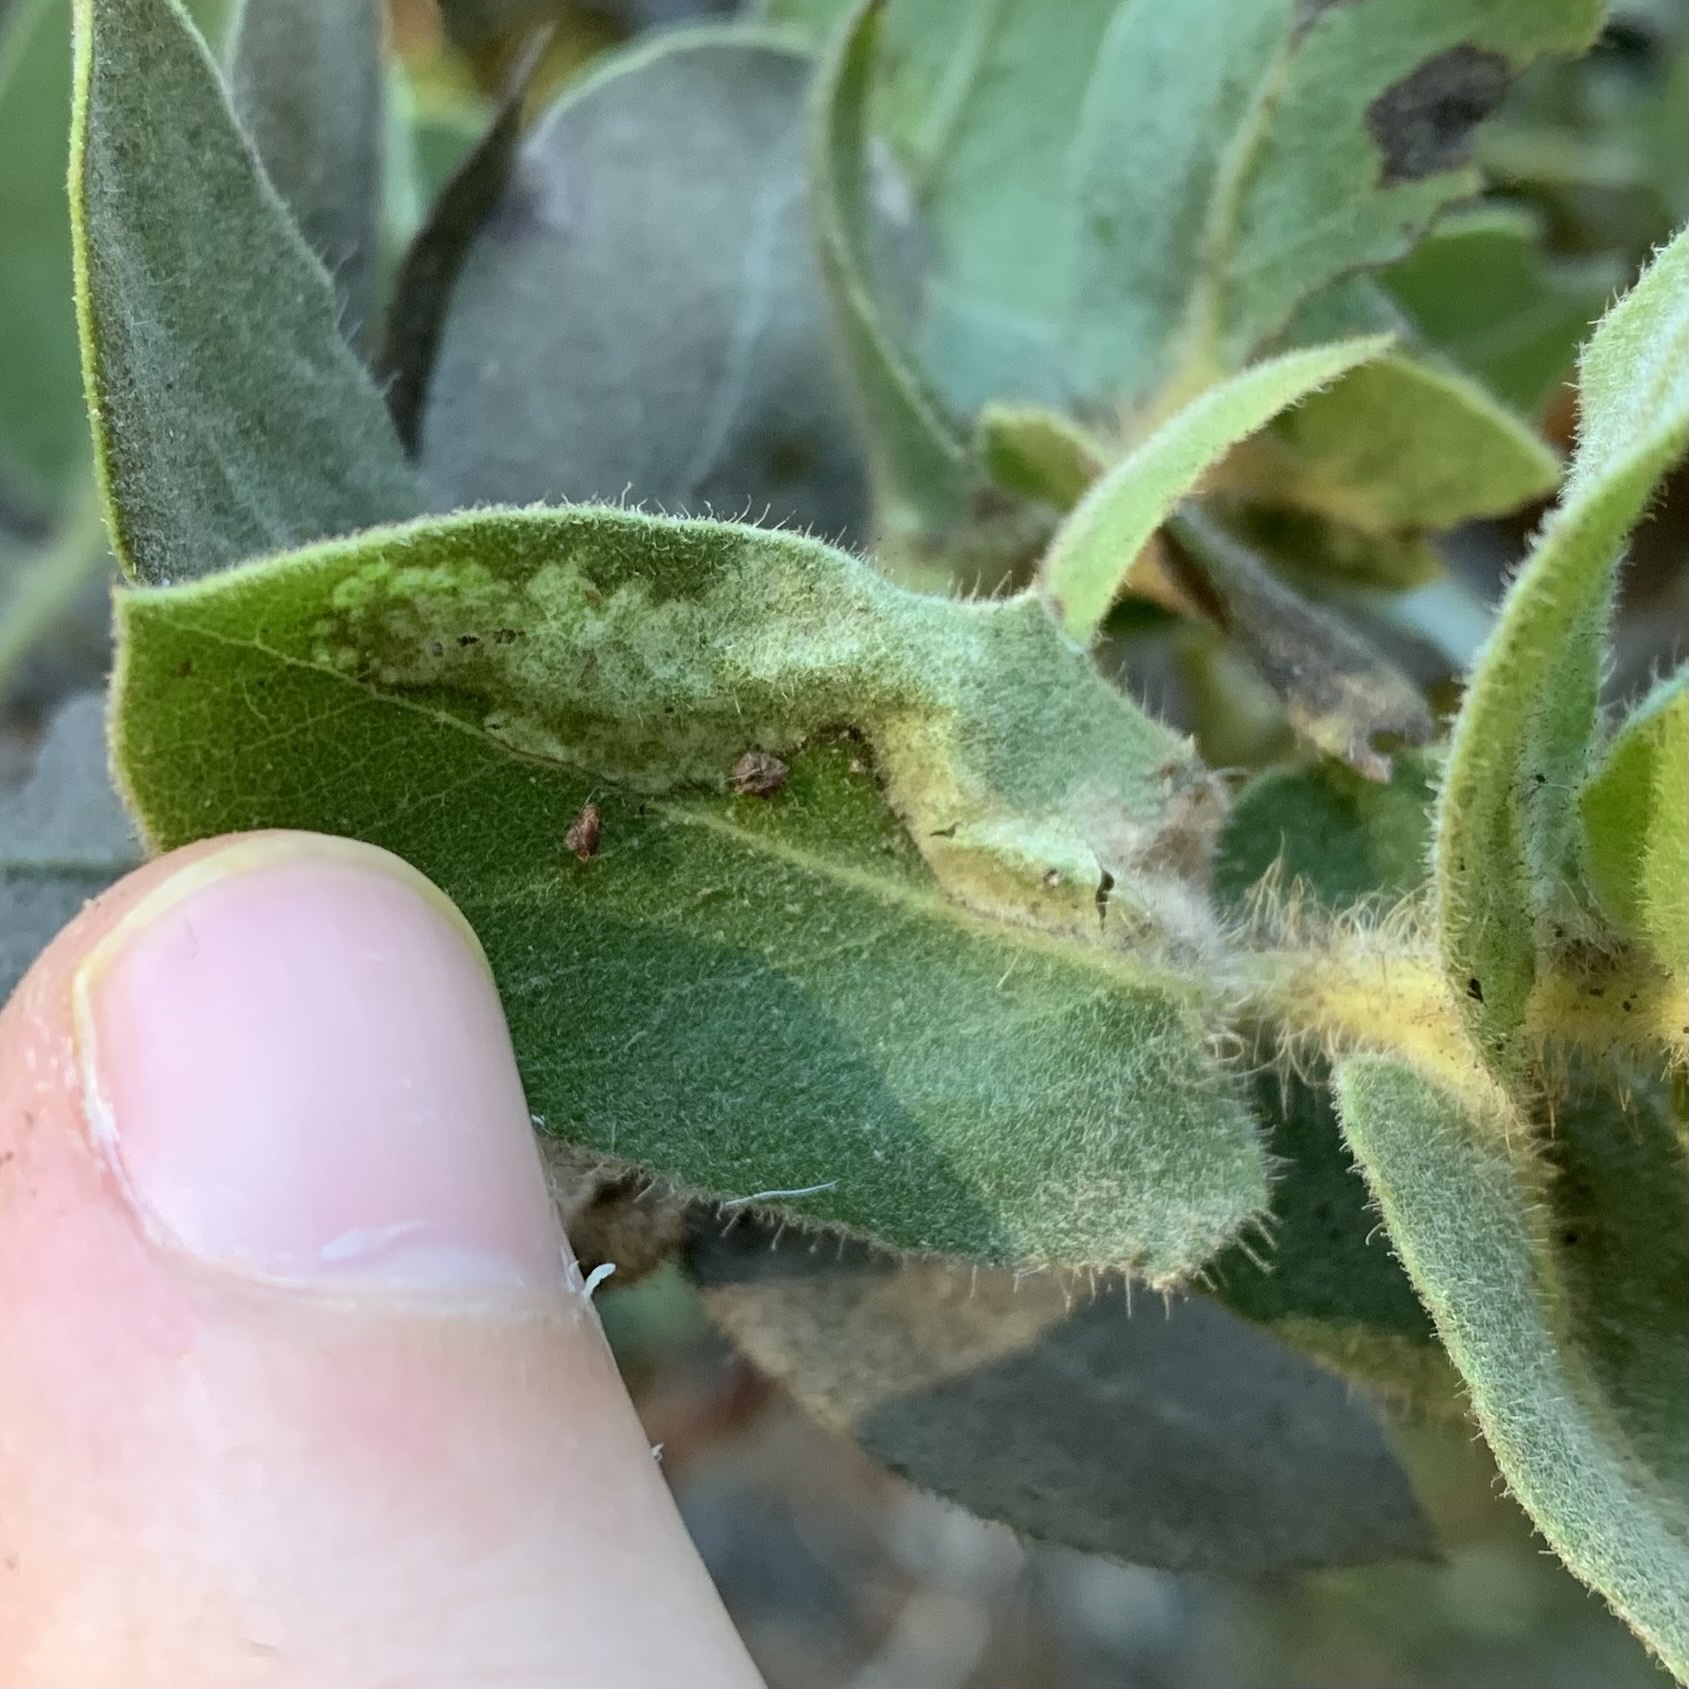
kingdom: Animalia
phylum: Arthropoda
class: Insecta
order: Lepidoptera
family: Tortricidae
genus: Epinotia
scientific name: Epinotia terracoctana
